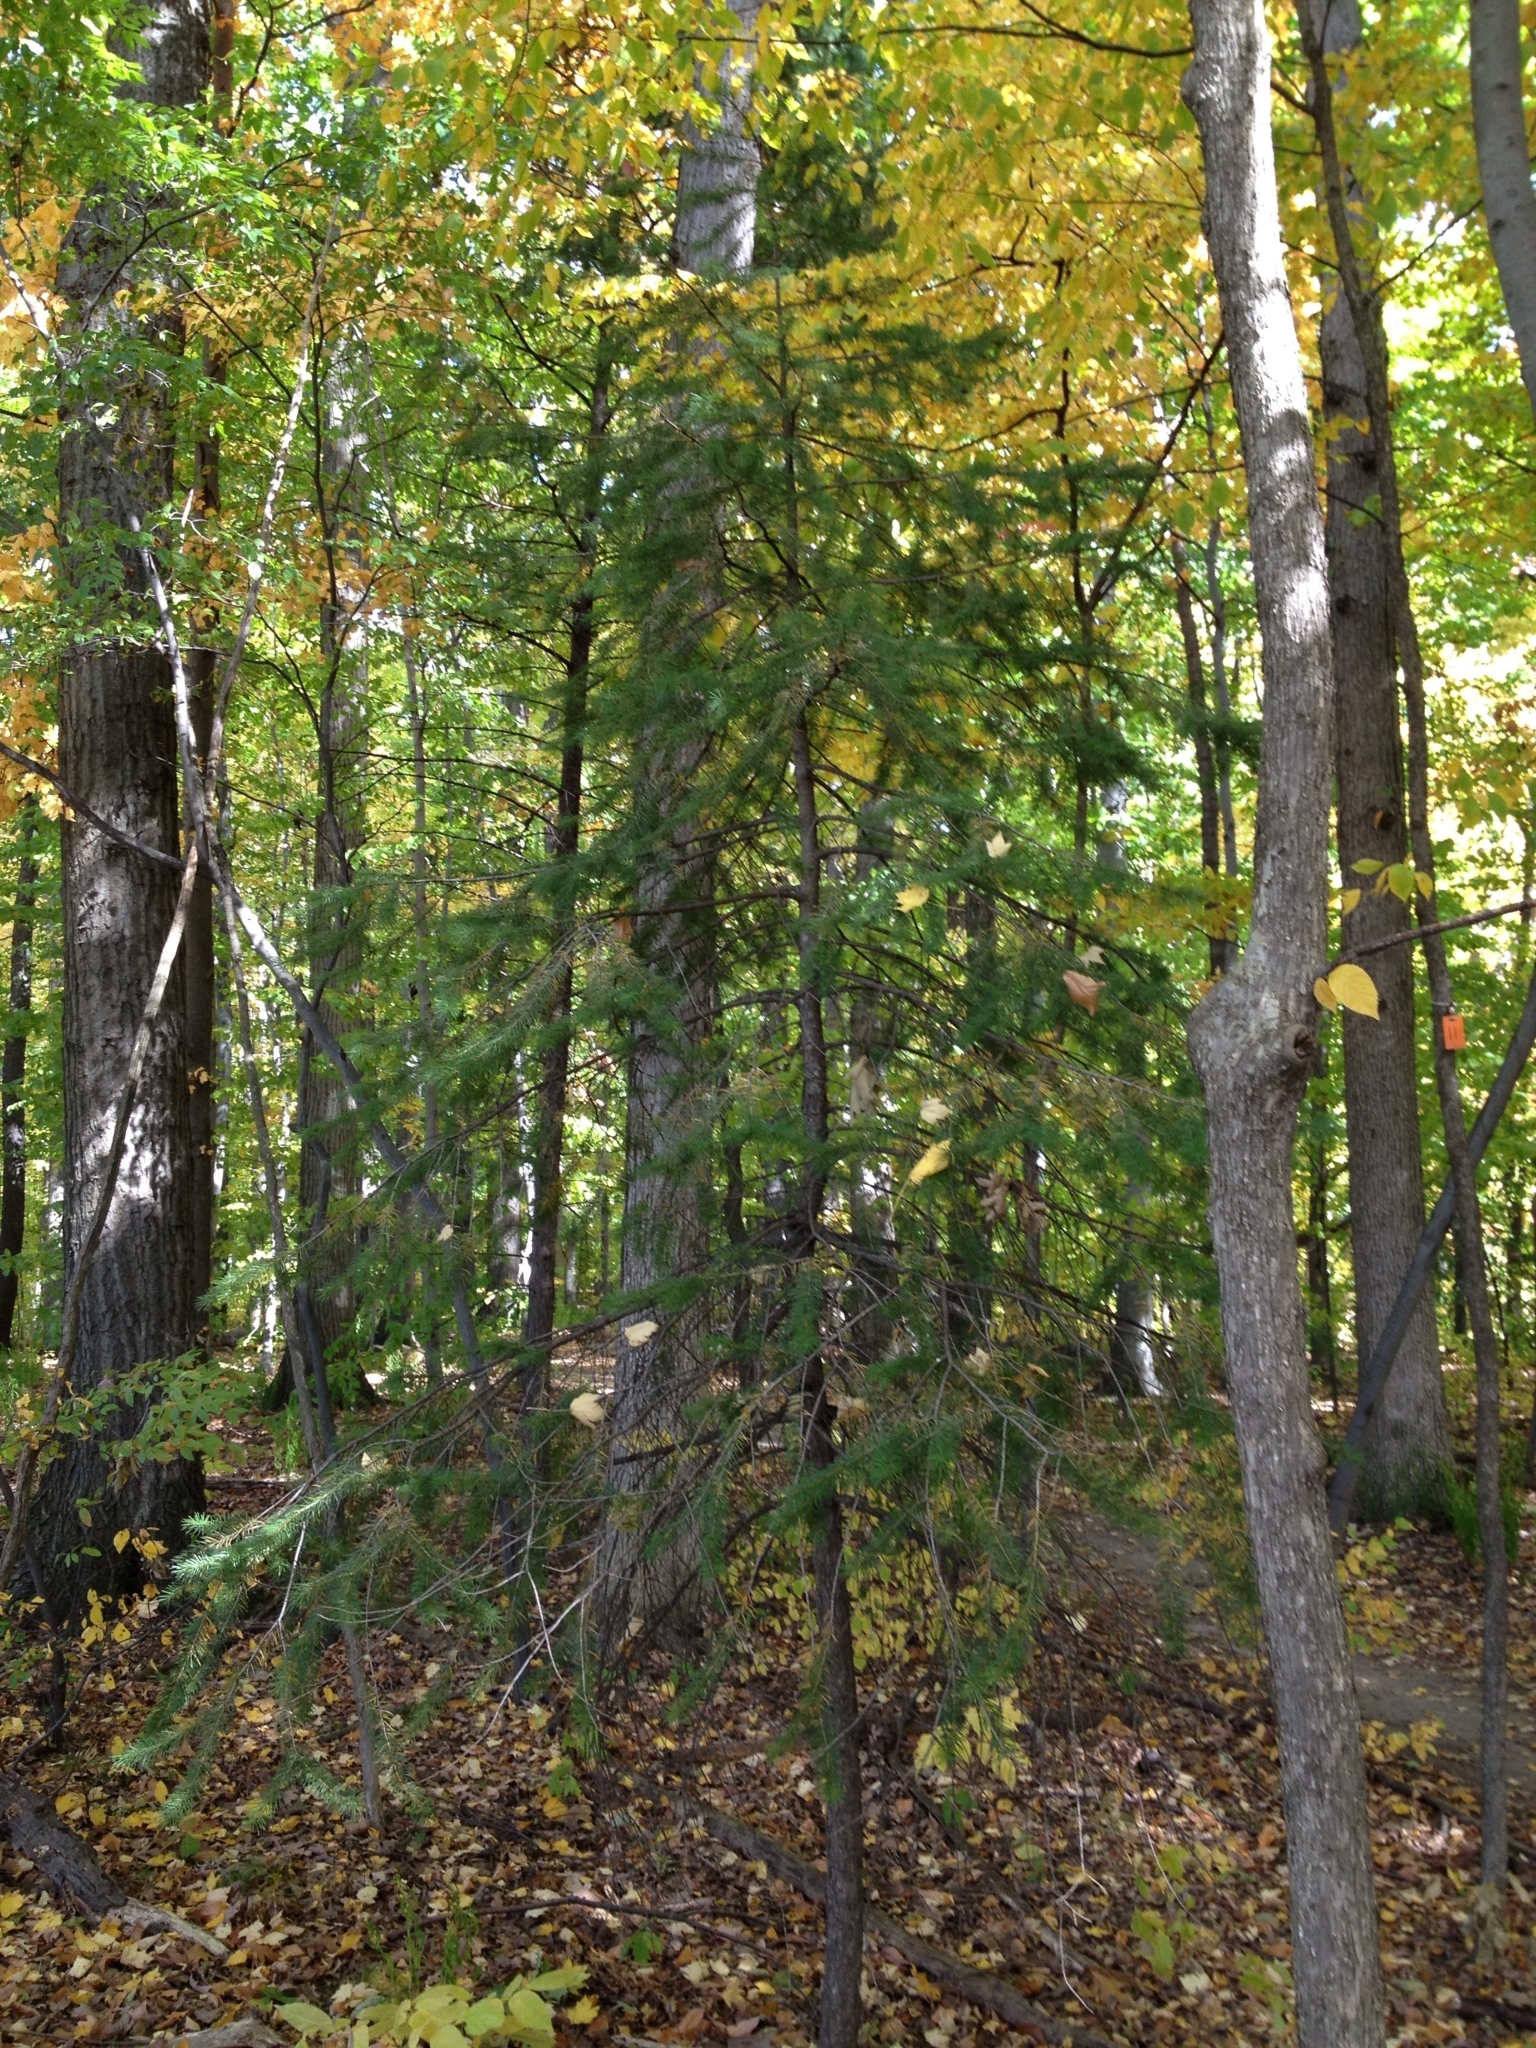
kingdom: Plantae
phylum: Tracheophyta
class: Pinopsida
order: Pinales
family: Pinaceae
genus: Pseudotsuga
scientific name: Pseudotsuga menziesii
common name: Douglas fir
